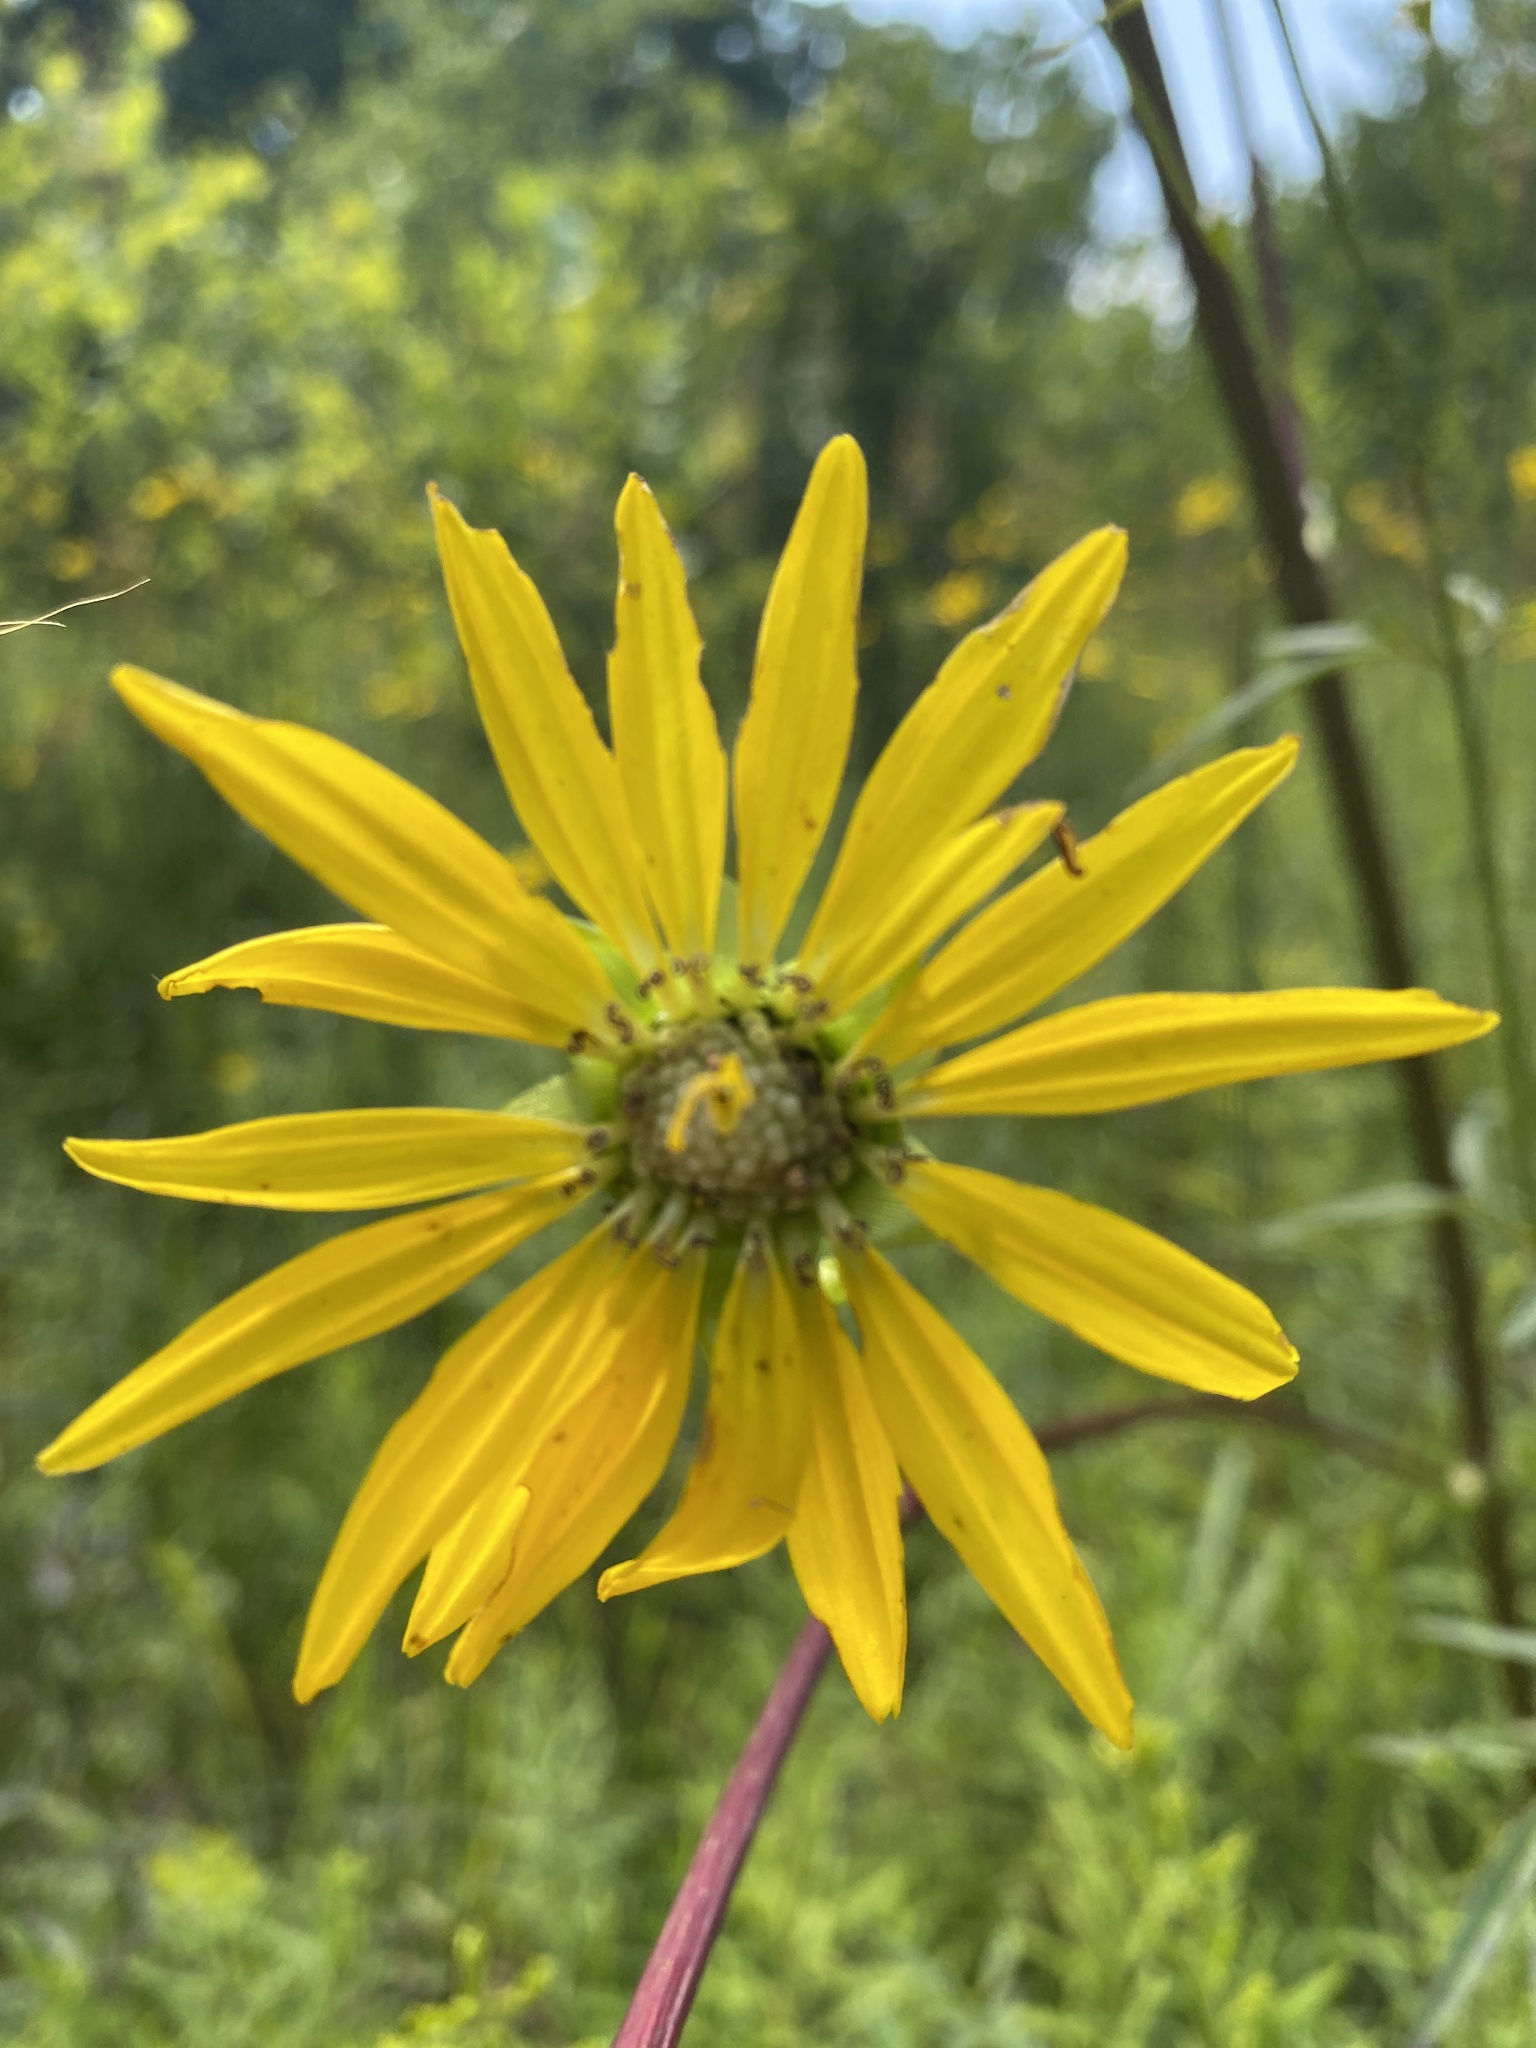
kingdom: Plantae
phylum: Tracheophyta
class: Magnoliopsida
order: Asterales
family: Asteraceae
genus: Silphium
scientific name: Silphium terebinthinaceum
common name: Basal-leaf rosinweed
